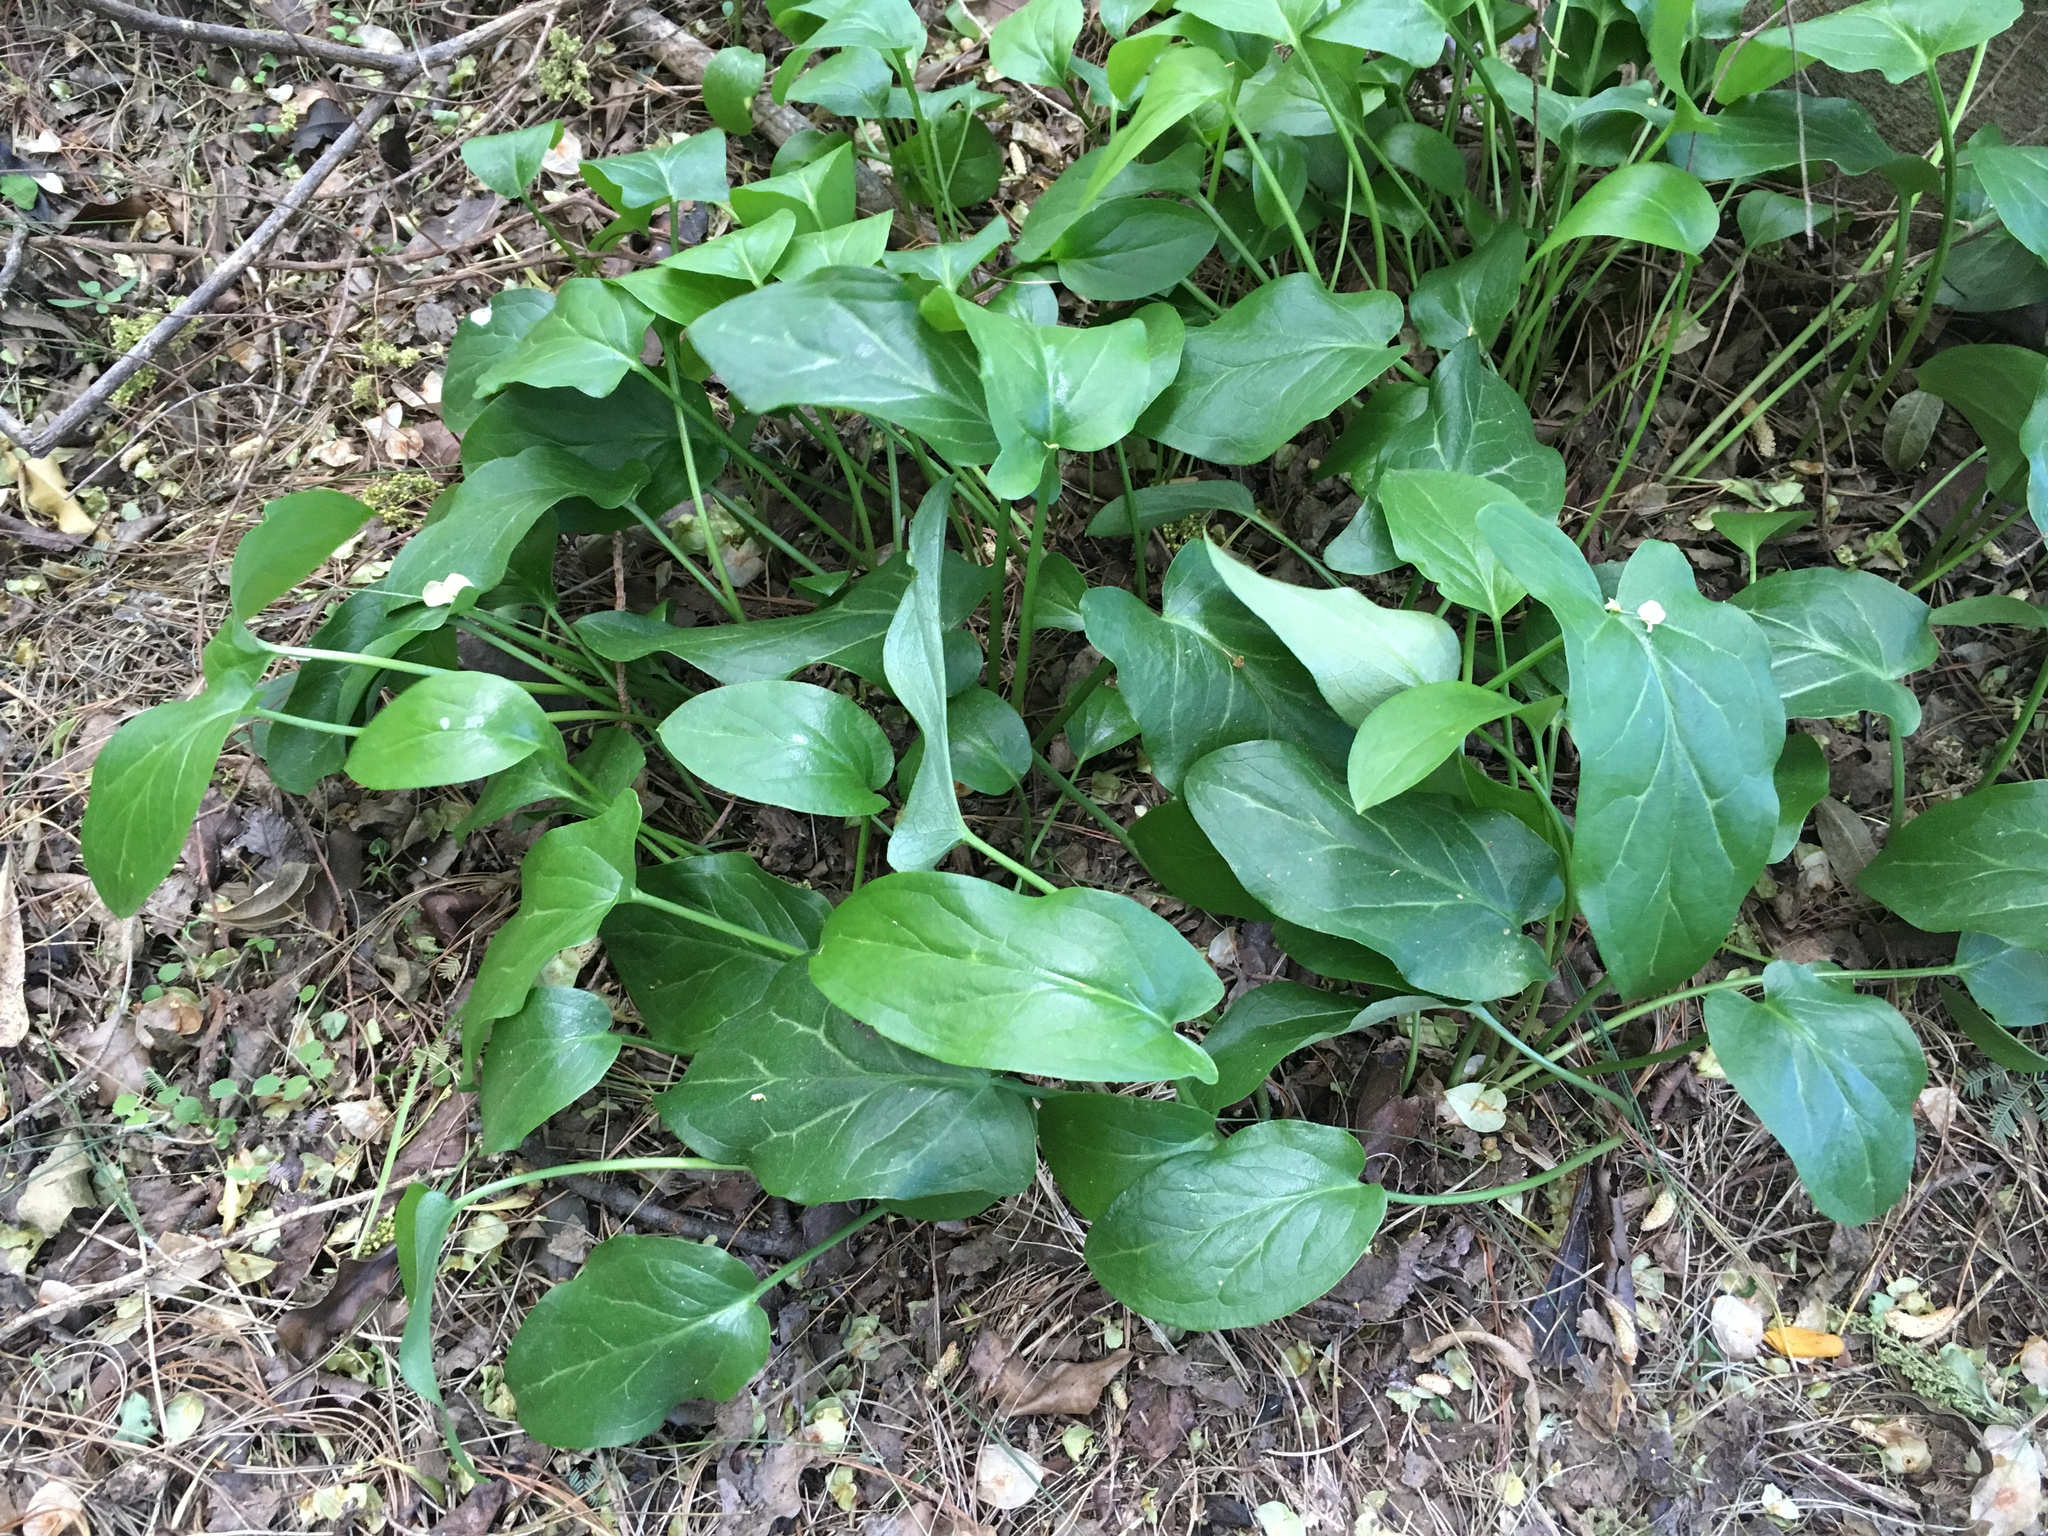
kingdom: Plantae
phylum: Tracheophyta
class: Liliopsida
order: Alismatales
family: Araceae
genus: Arum
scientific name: Arum italicum
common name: Italian lords-and-ladies
